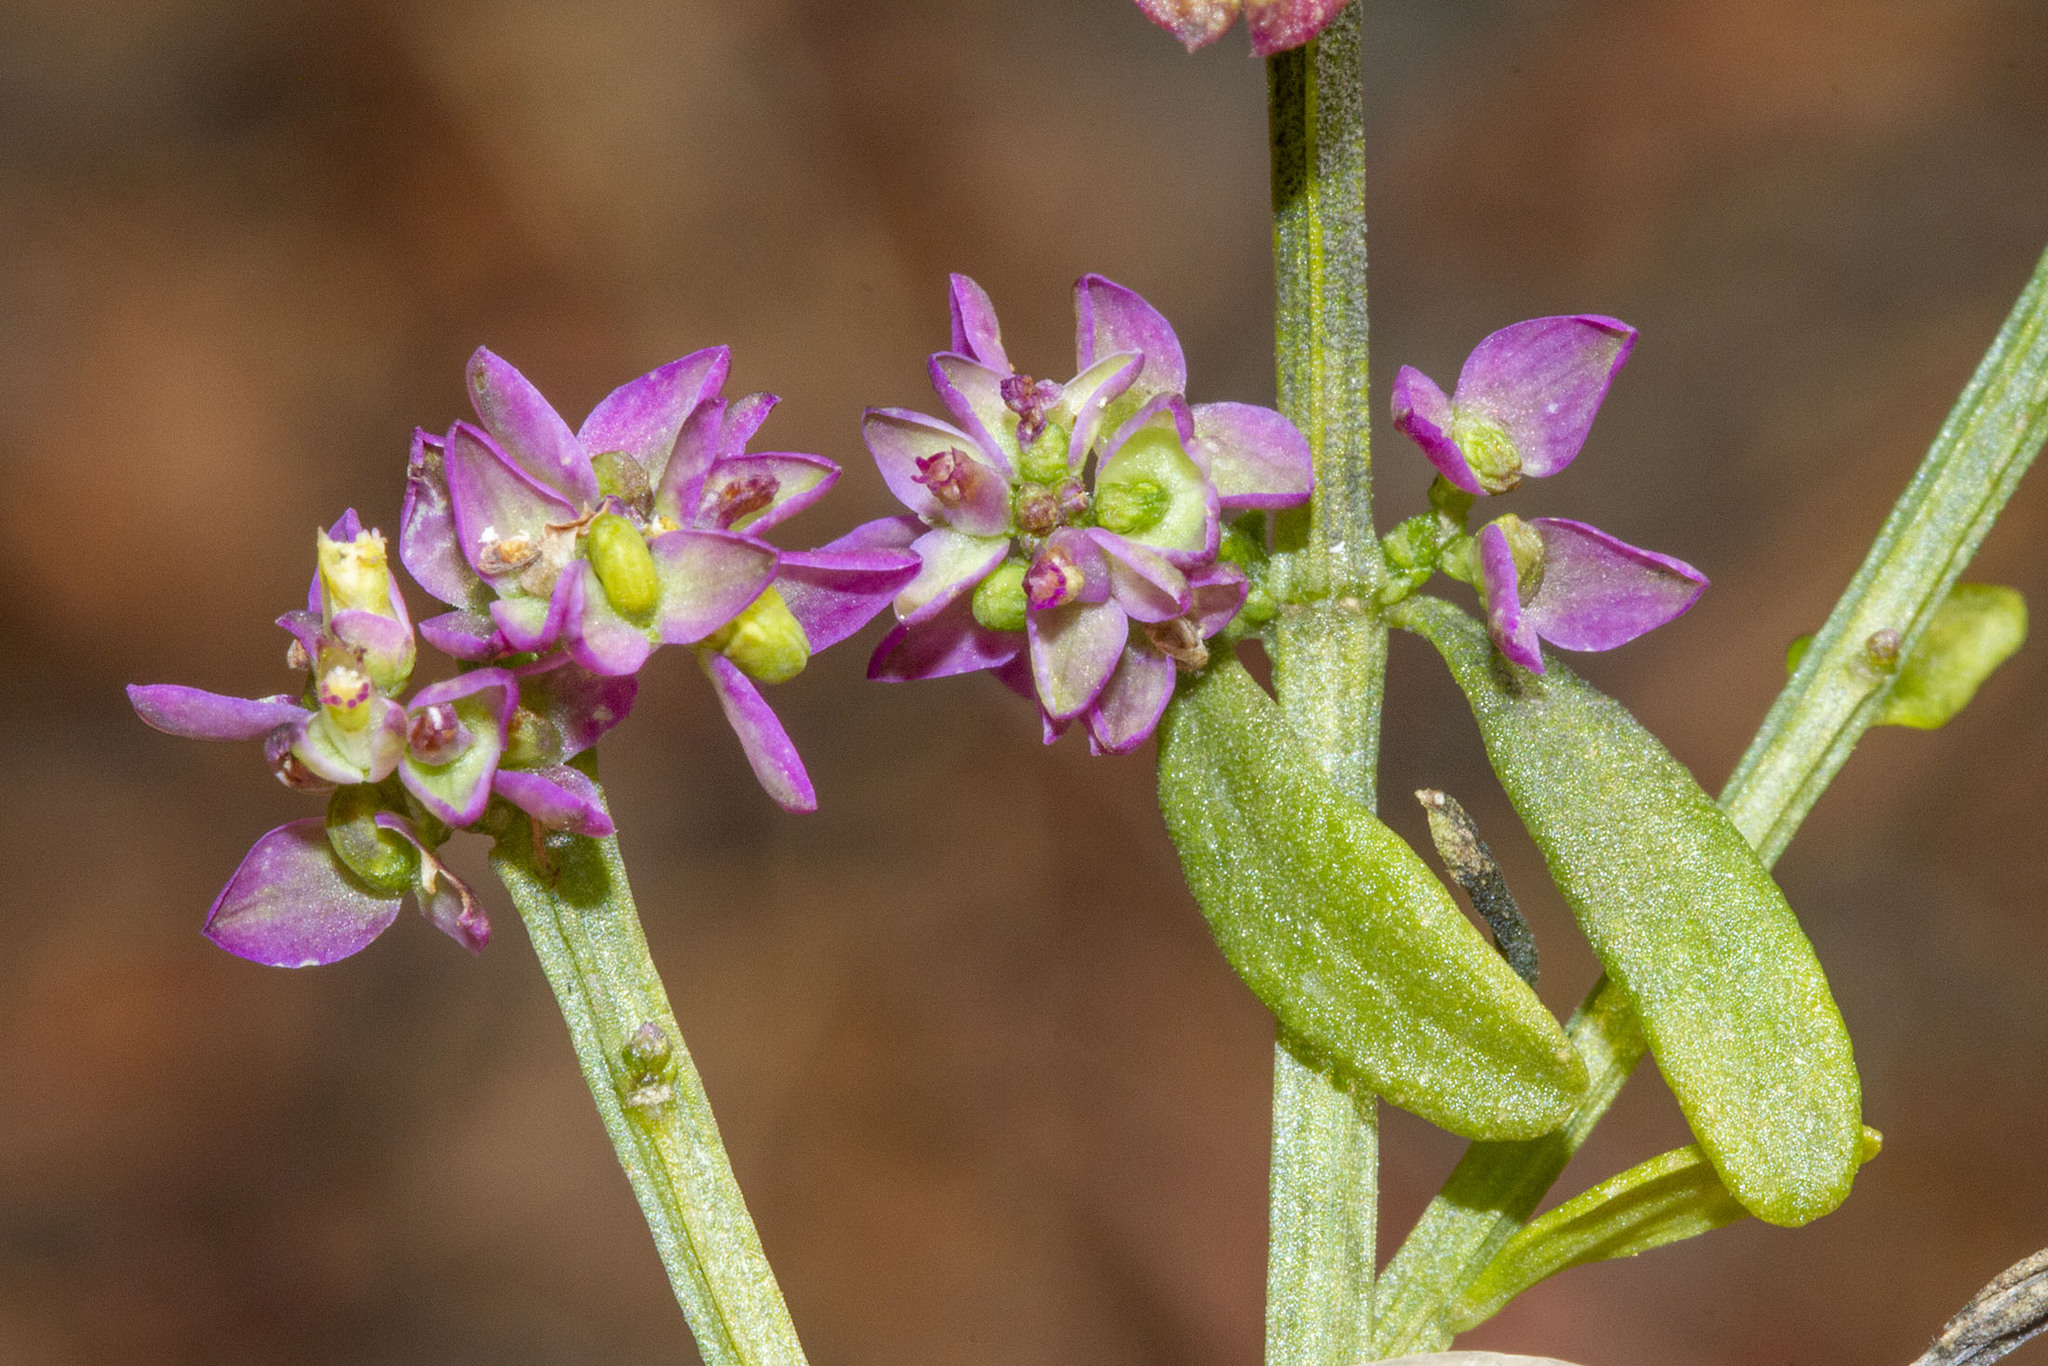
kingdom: Plantae
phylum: Tracheophyta
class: Magnoliopsida
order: Fabales
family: Polygalaceae
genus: Polygala
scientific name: Polygala brevifolia
